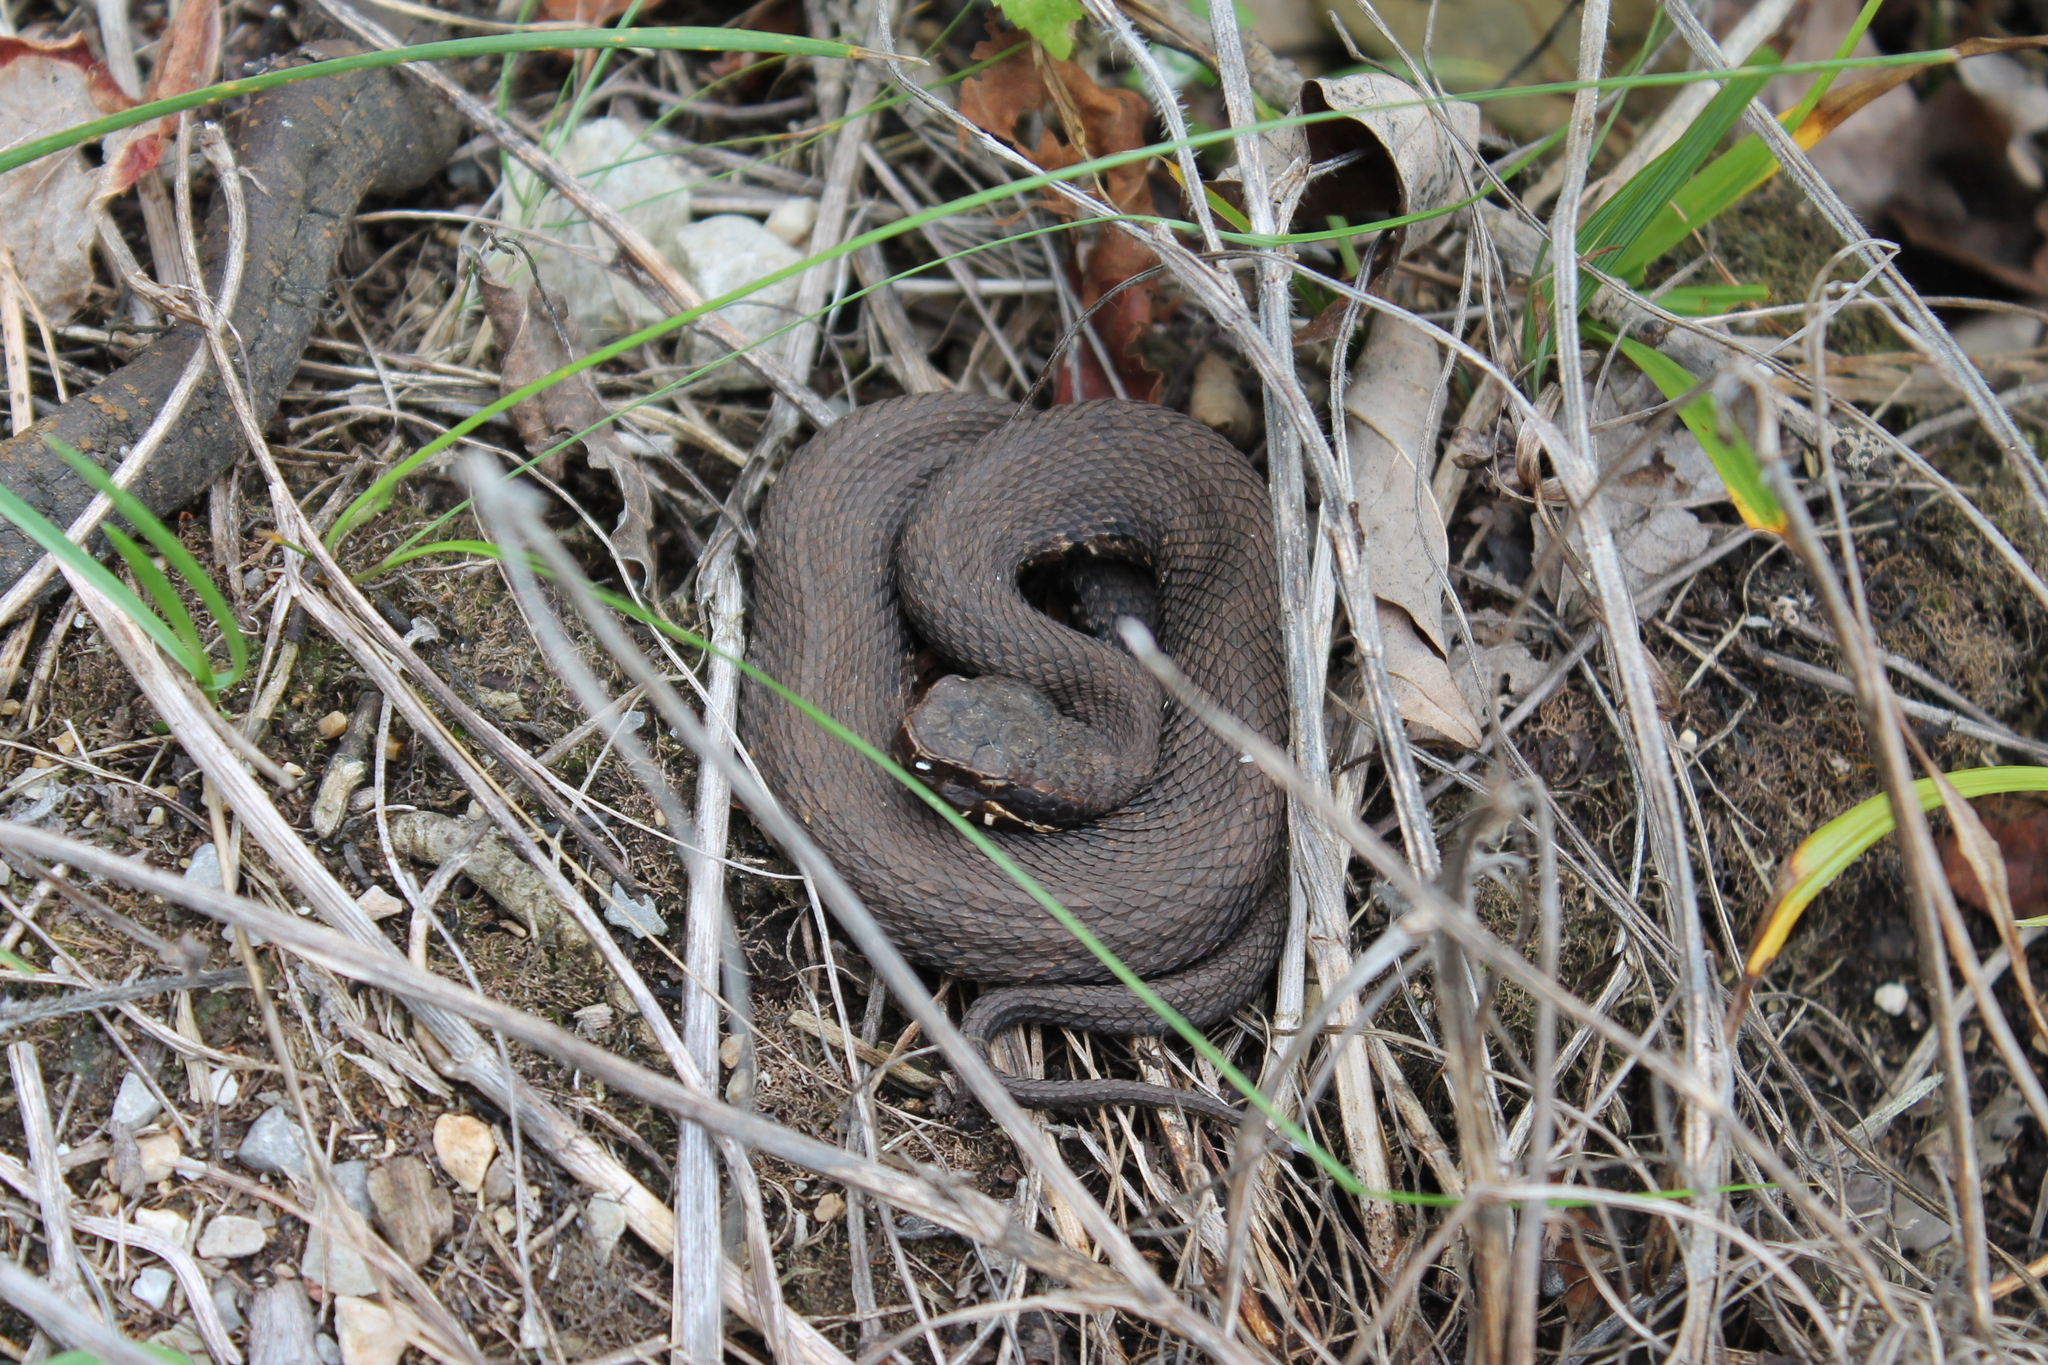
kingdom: Animalia
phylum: Chordata
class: Squamata
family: Viperidae
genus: Agkistrodon
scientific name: Agkistrodon piscivorus
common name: Cottonmouth
